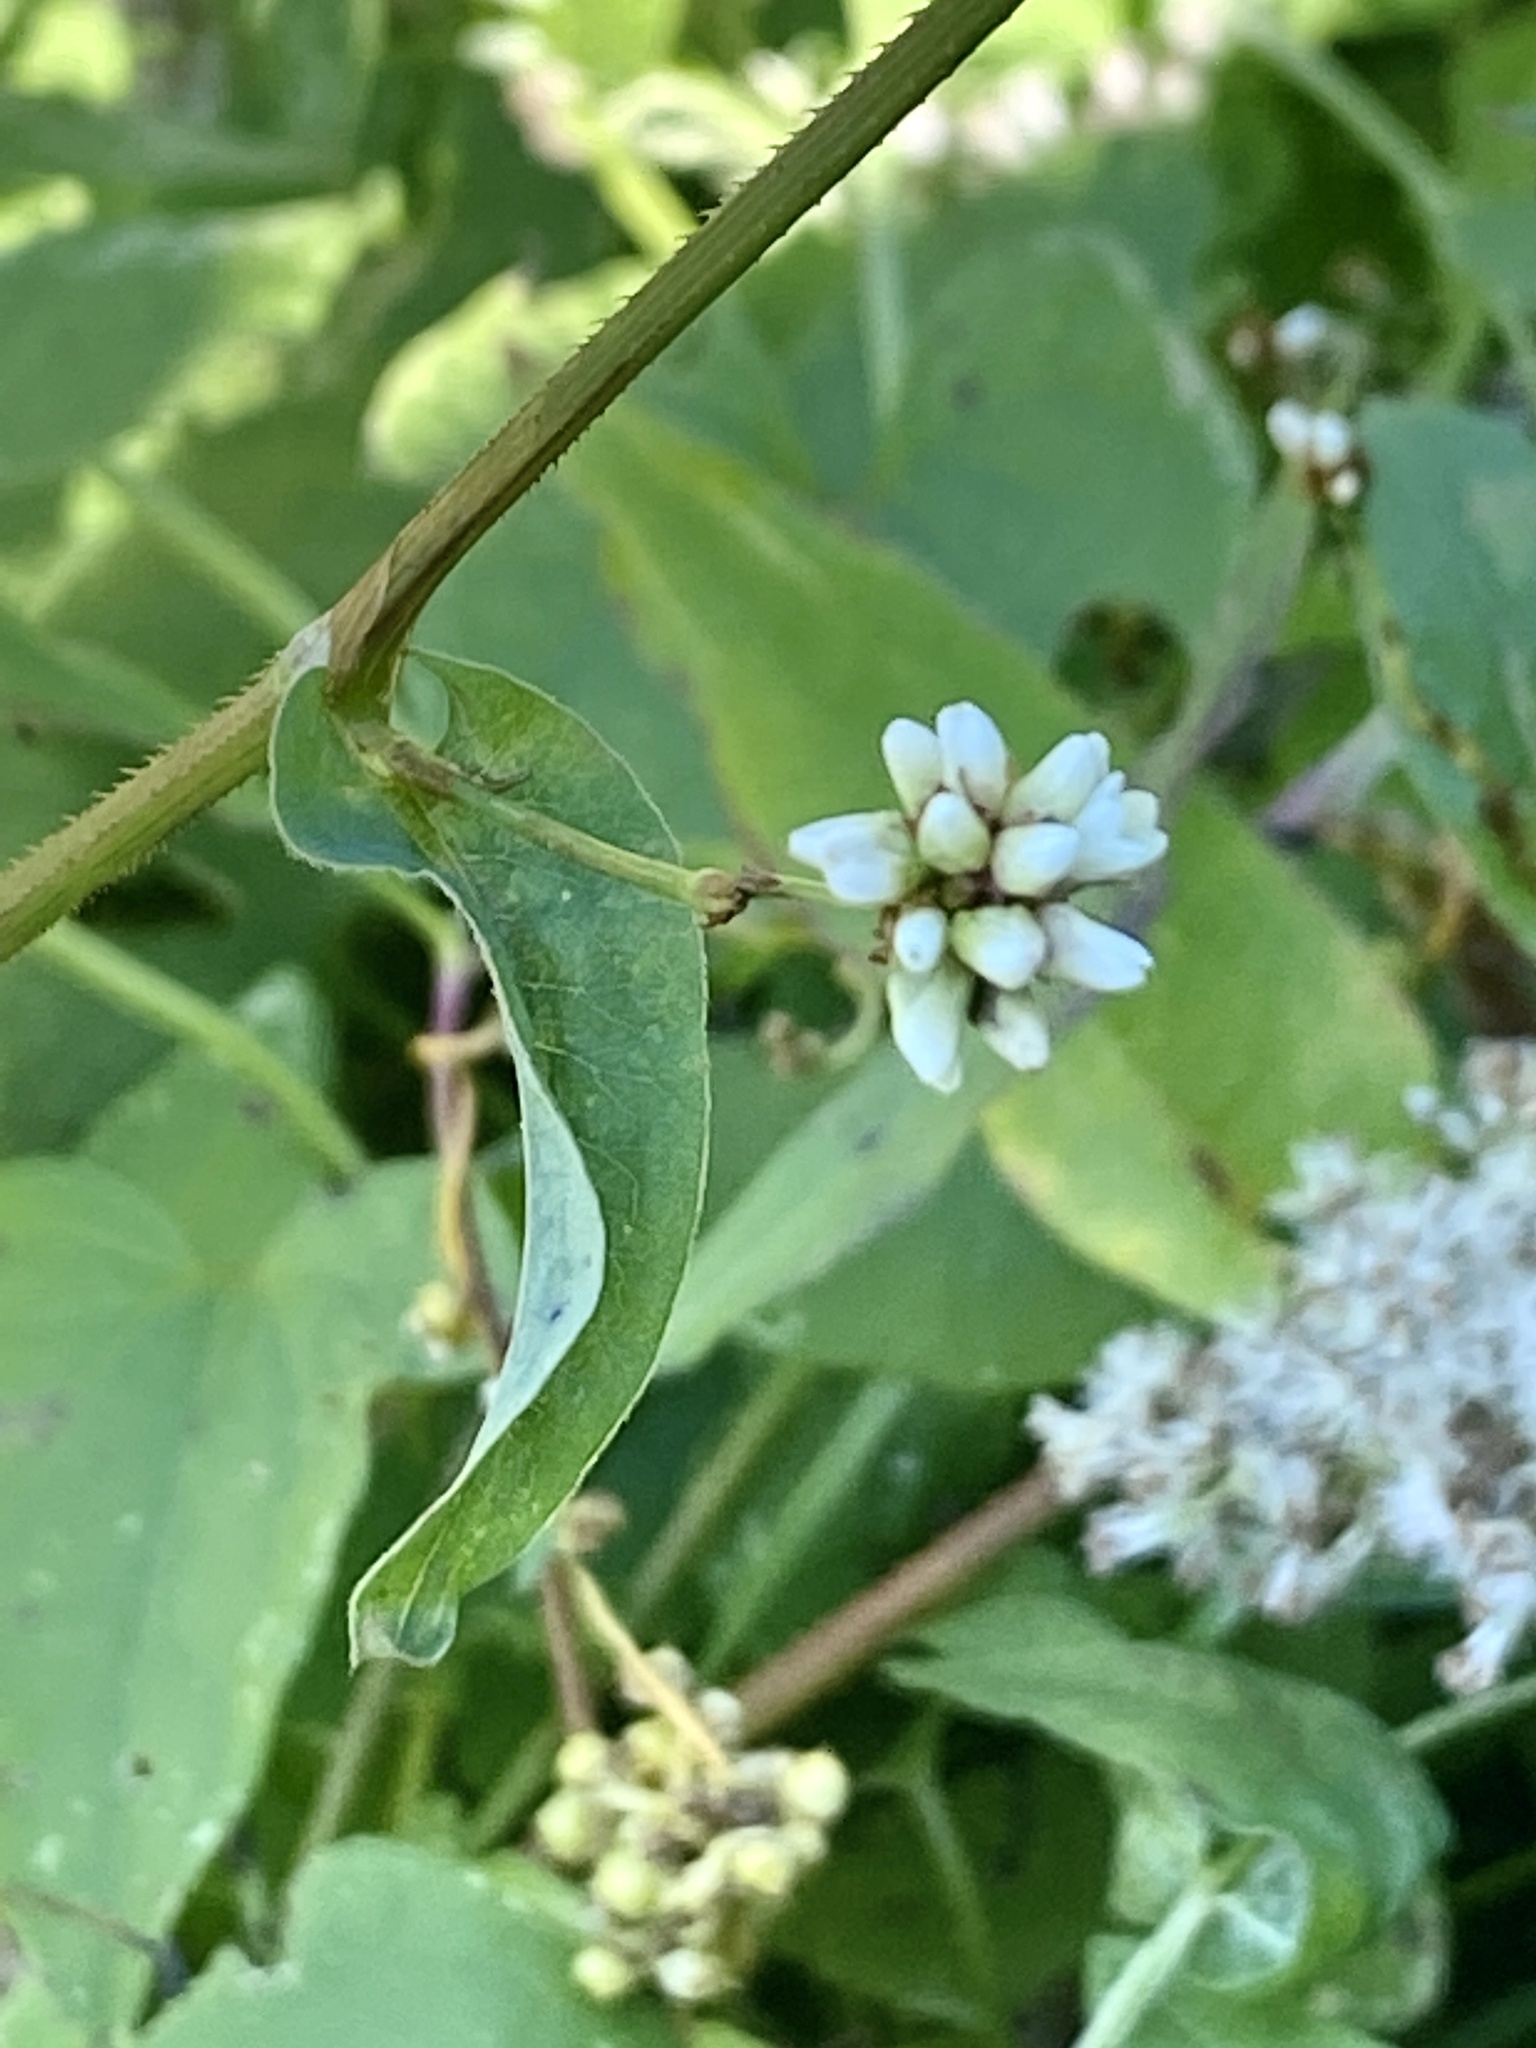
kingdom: Plantae
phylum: Tracheophyta
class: Magnoliopsida
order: Caryophyllales
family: Polygonaceae
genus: Persicaria
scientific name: Persicaria sagittata
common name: American tearthumb
